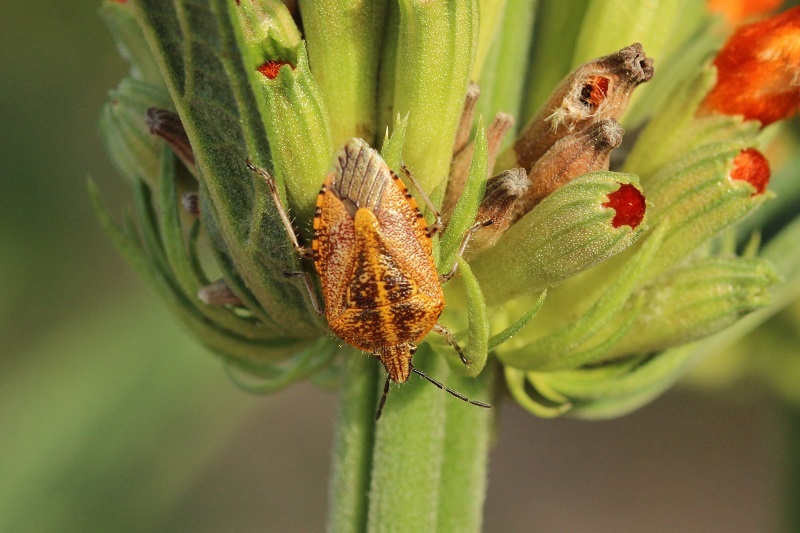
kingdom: Animalia
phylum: Arthropoda
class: Insecta
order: Hemiptera
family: Pentatomidae
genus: Agonoscelis
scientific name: Agonoscelis
